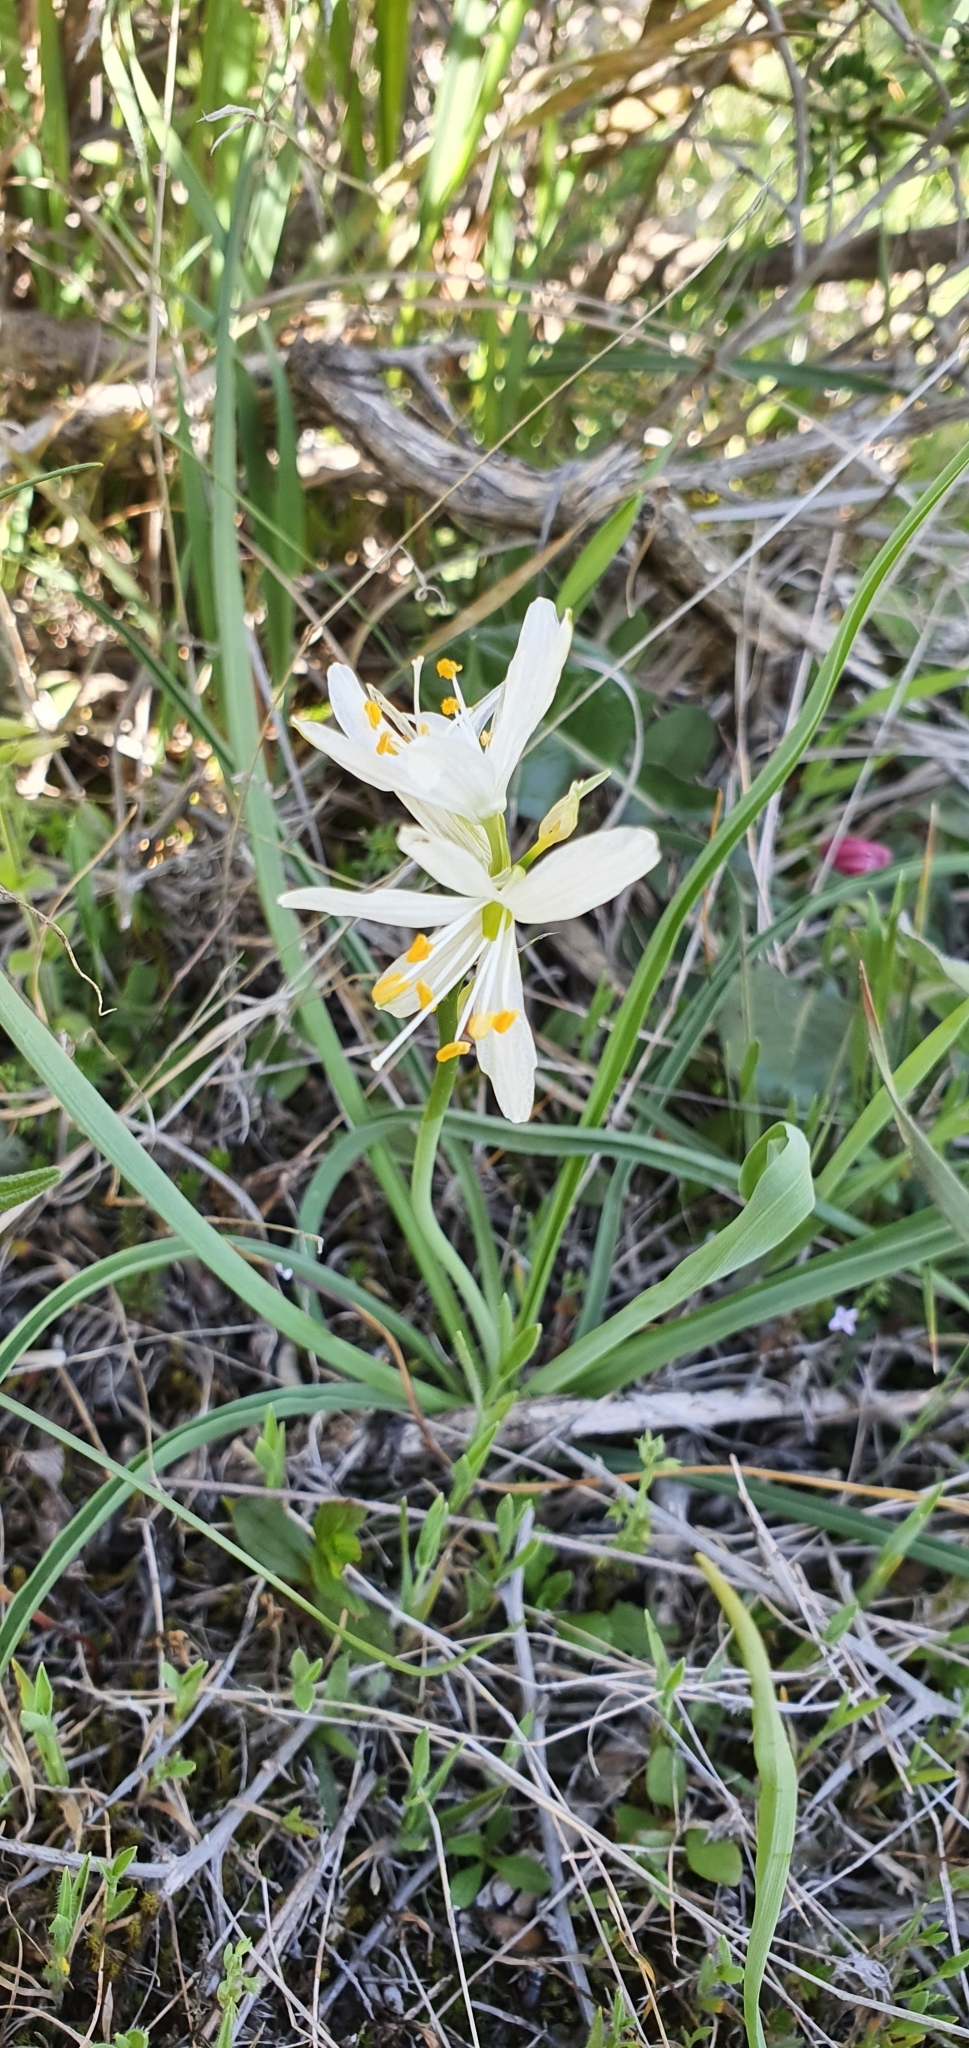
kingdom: Plantae
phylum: Tracheophyta
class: Liliopsida
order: Asparagales
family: Asparagaceae
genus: Anthericum
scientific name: Anthericum baeticum
